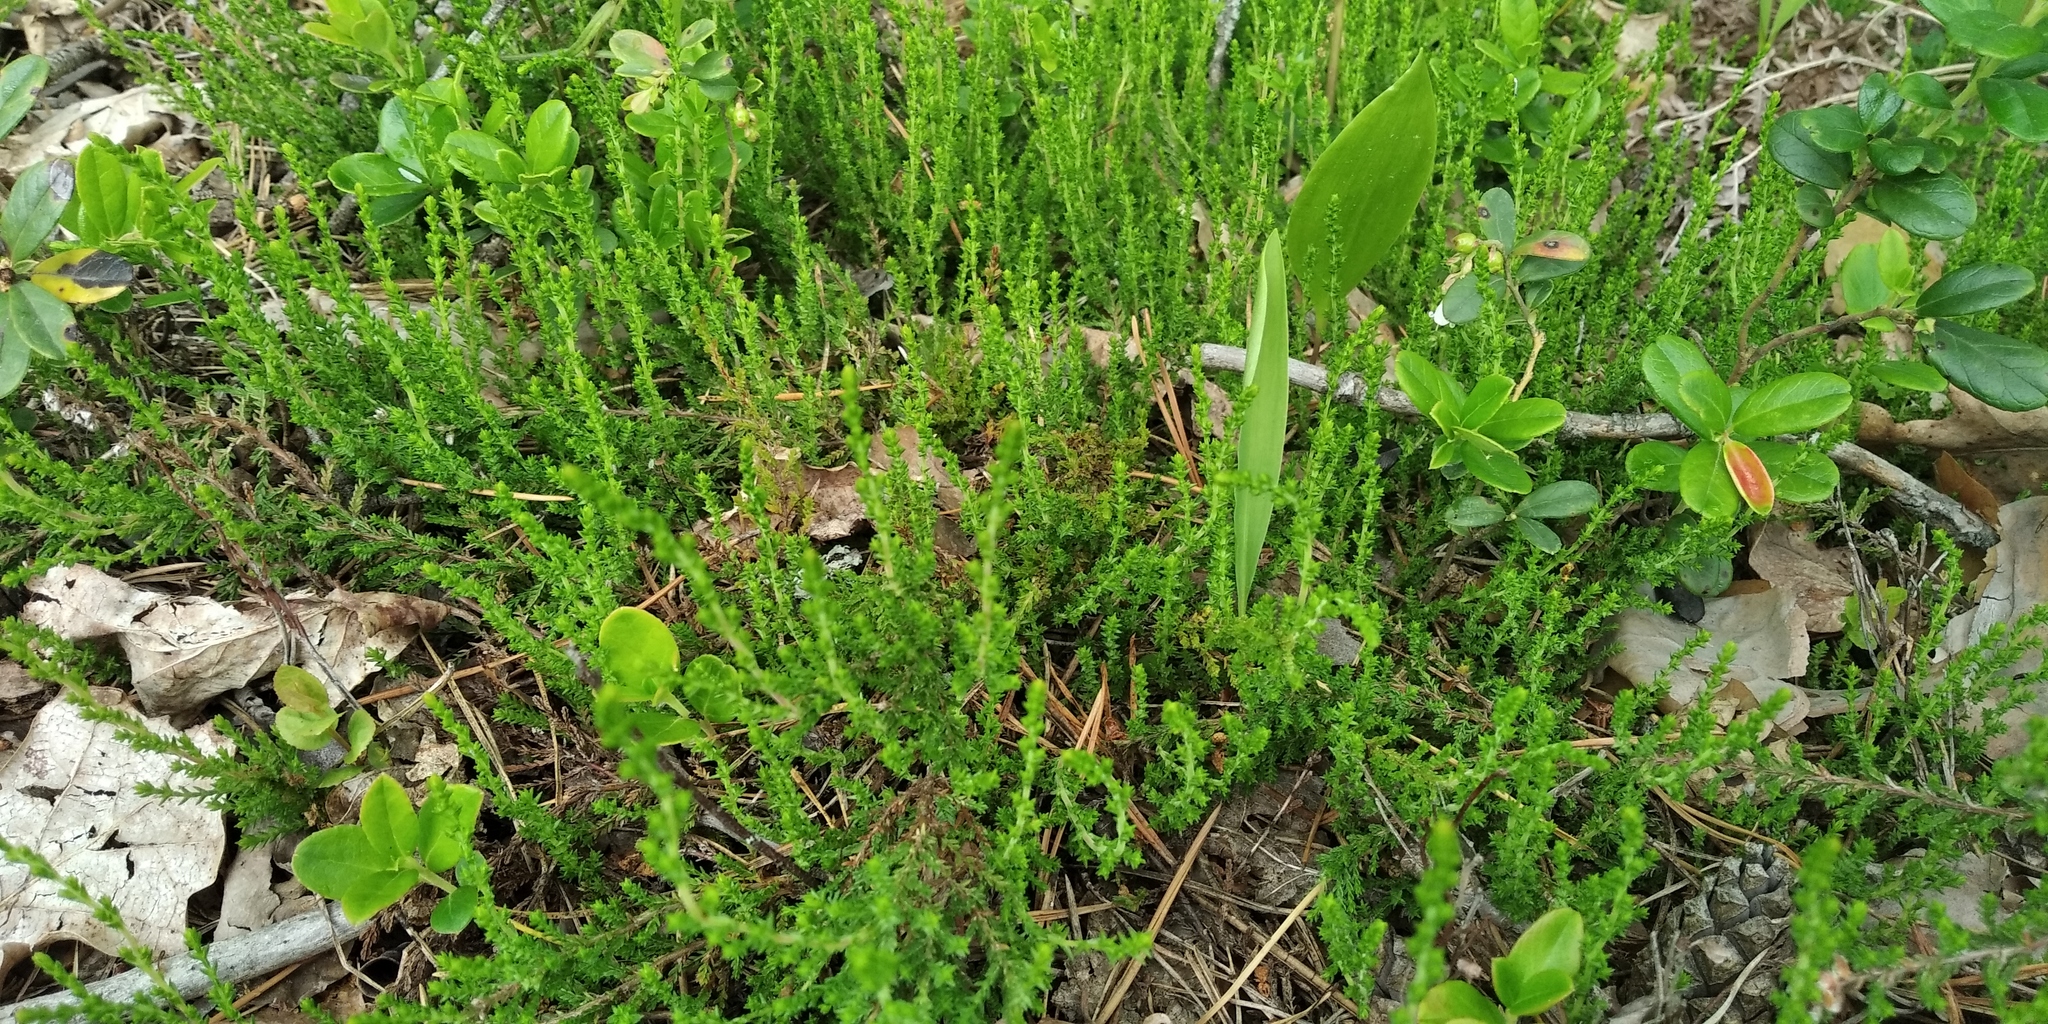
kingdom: Plantae
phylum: Tracheophyta
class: Magnoliopsida
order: Ericales
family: Ericaceae
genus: Calluna
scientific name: Calluna vulgaris
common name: Heather
